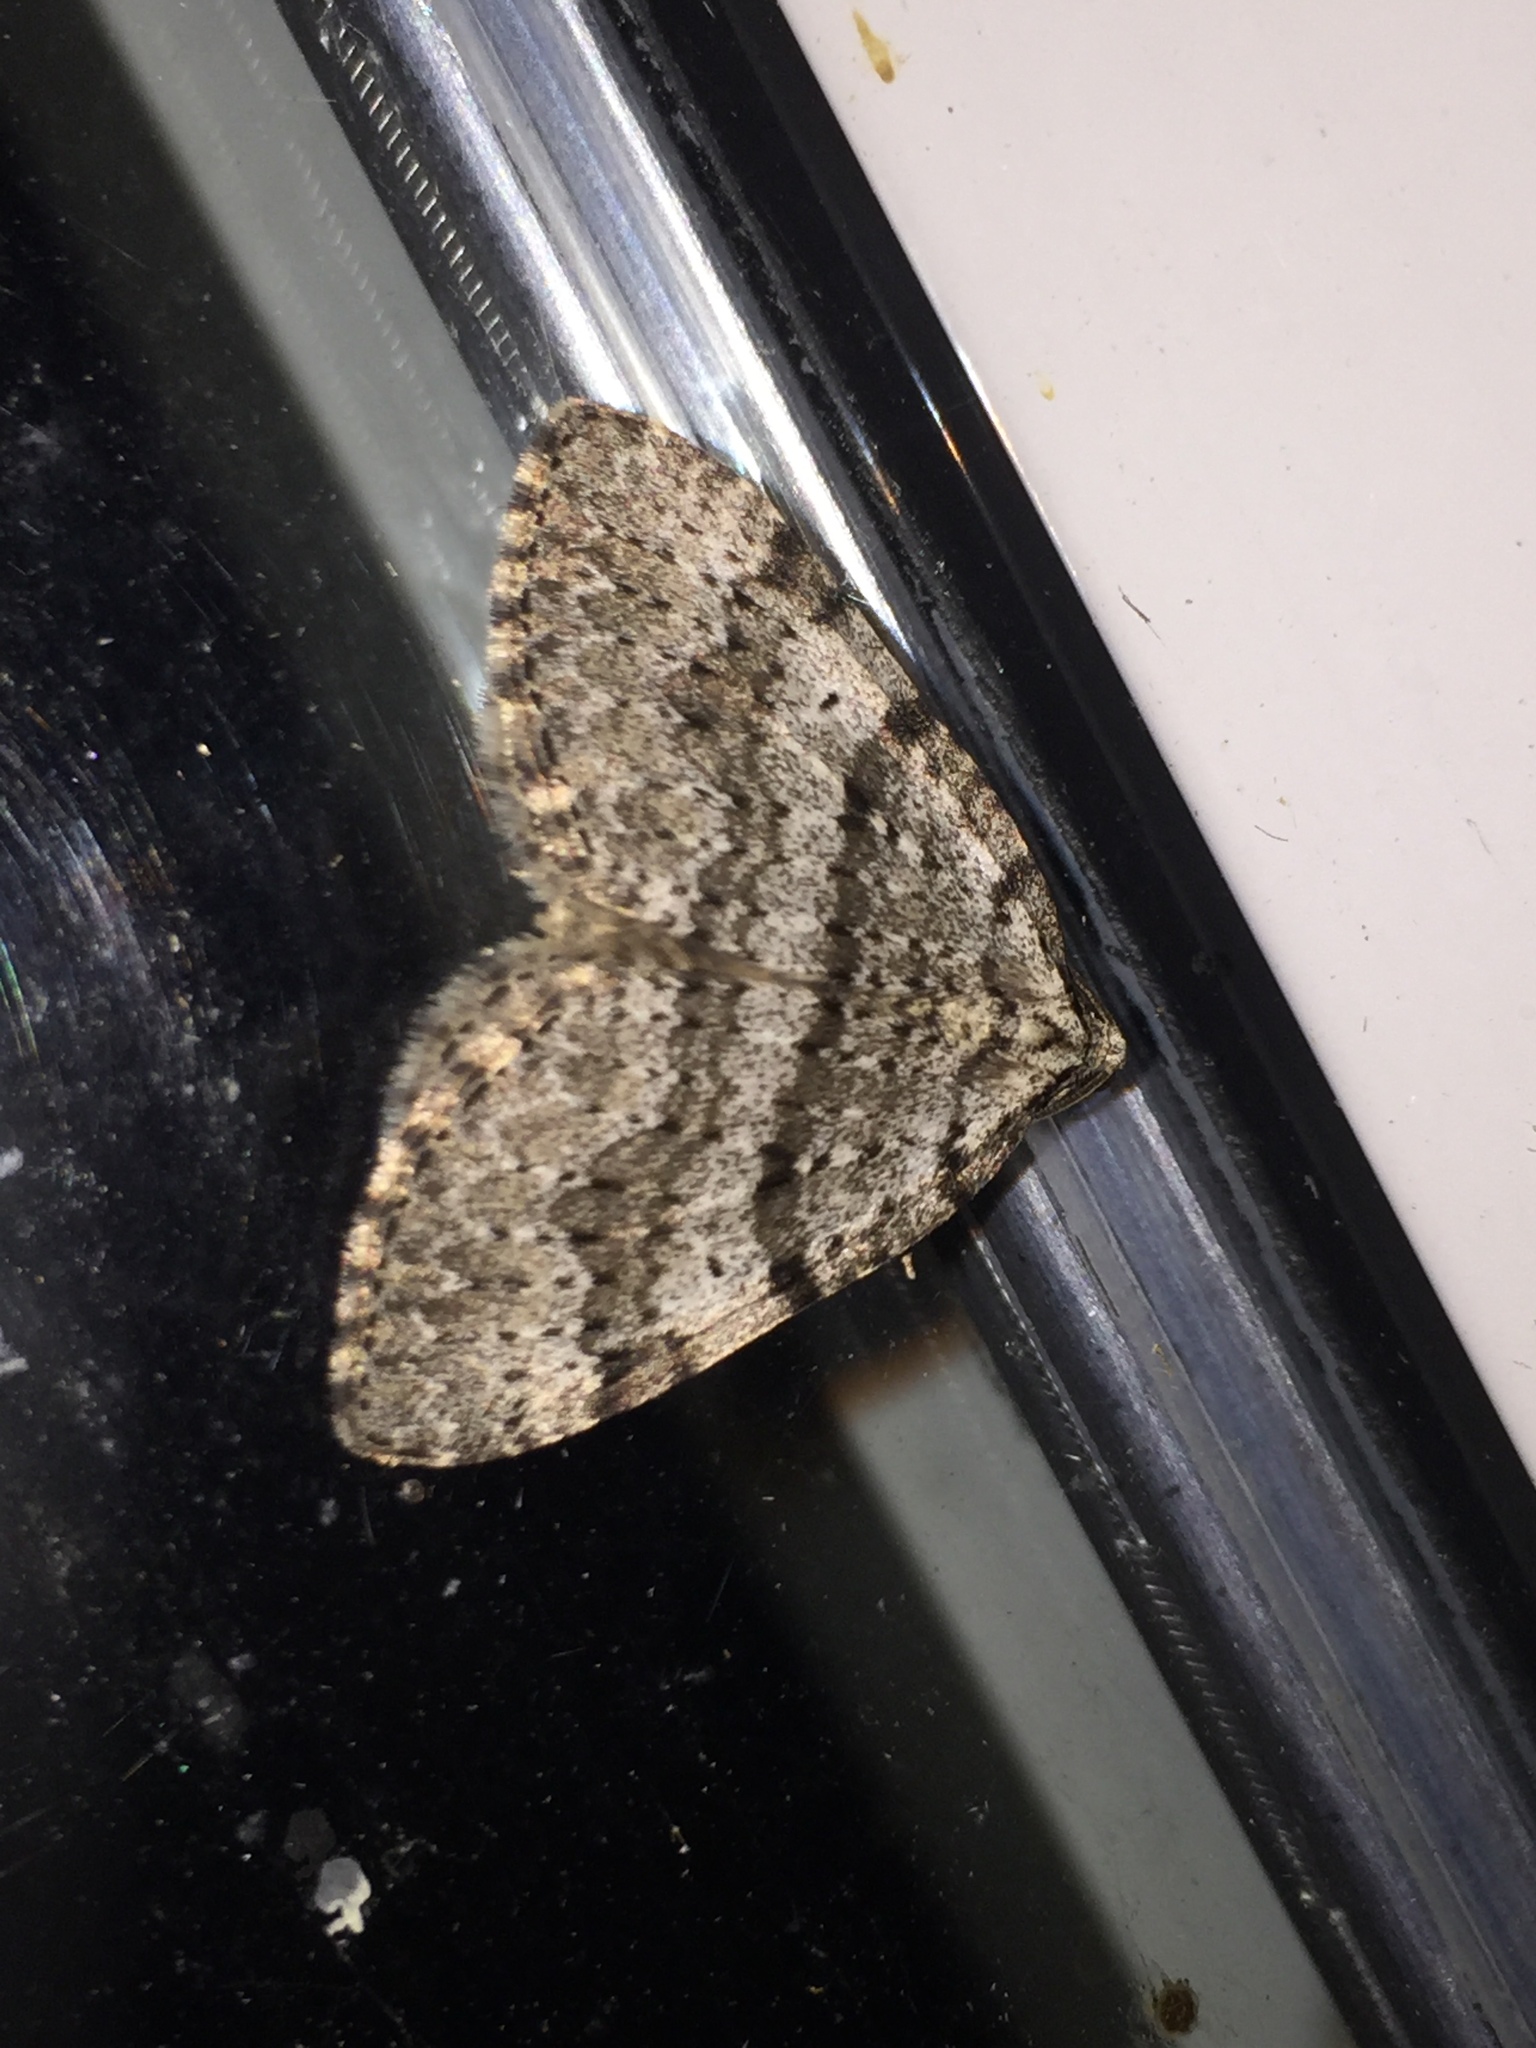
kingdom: Animalia
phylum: Arthropoda
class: Insecta
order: Lepidoptera
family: Geometridae
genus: Perizoma
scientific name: Perizoma curvilinea
